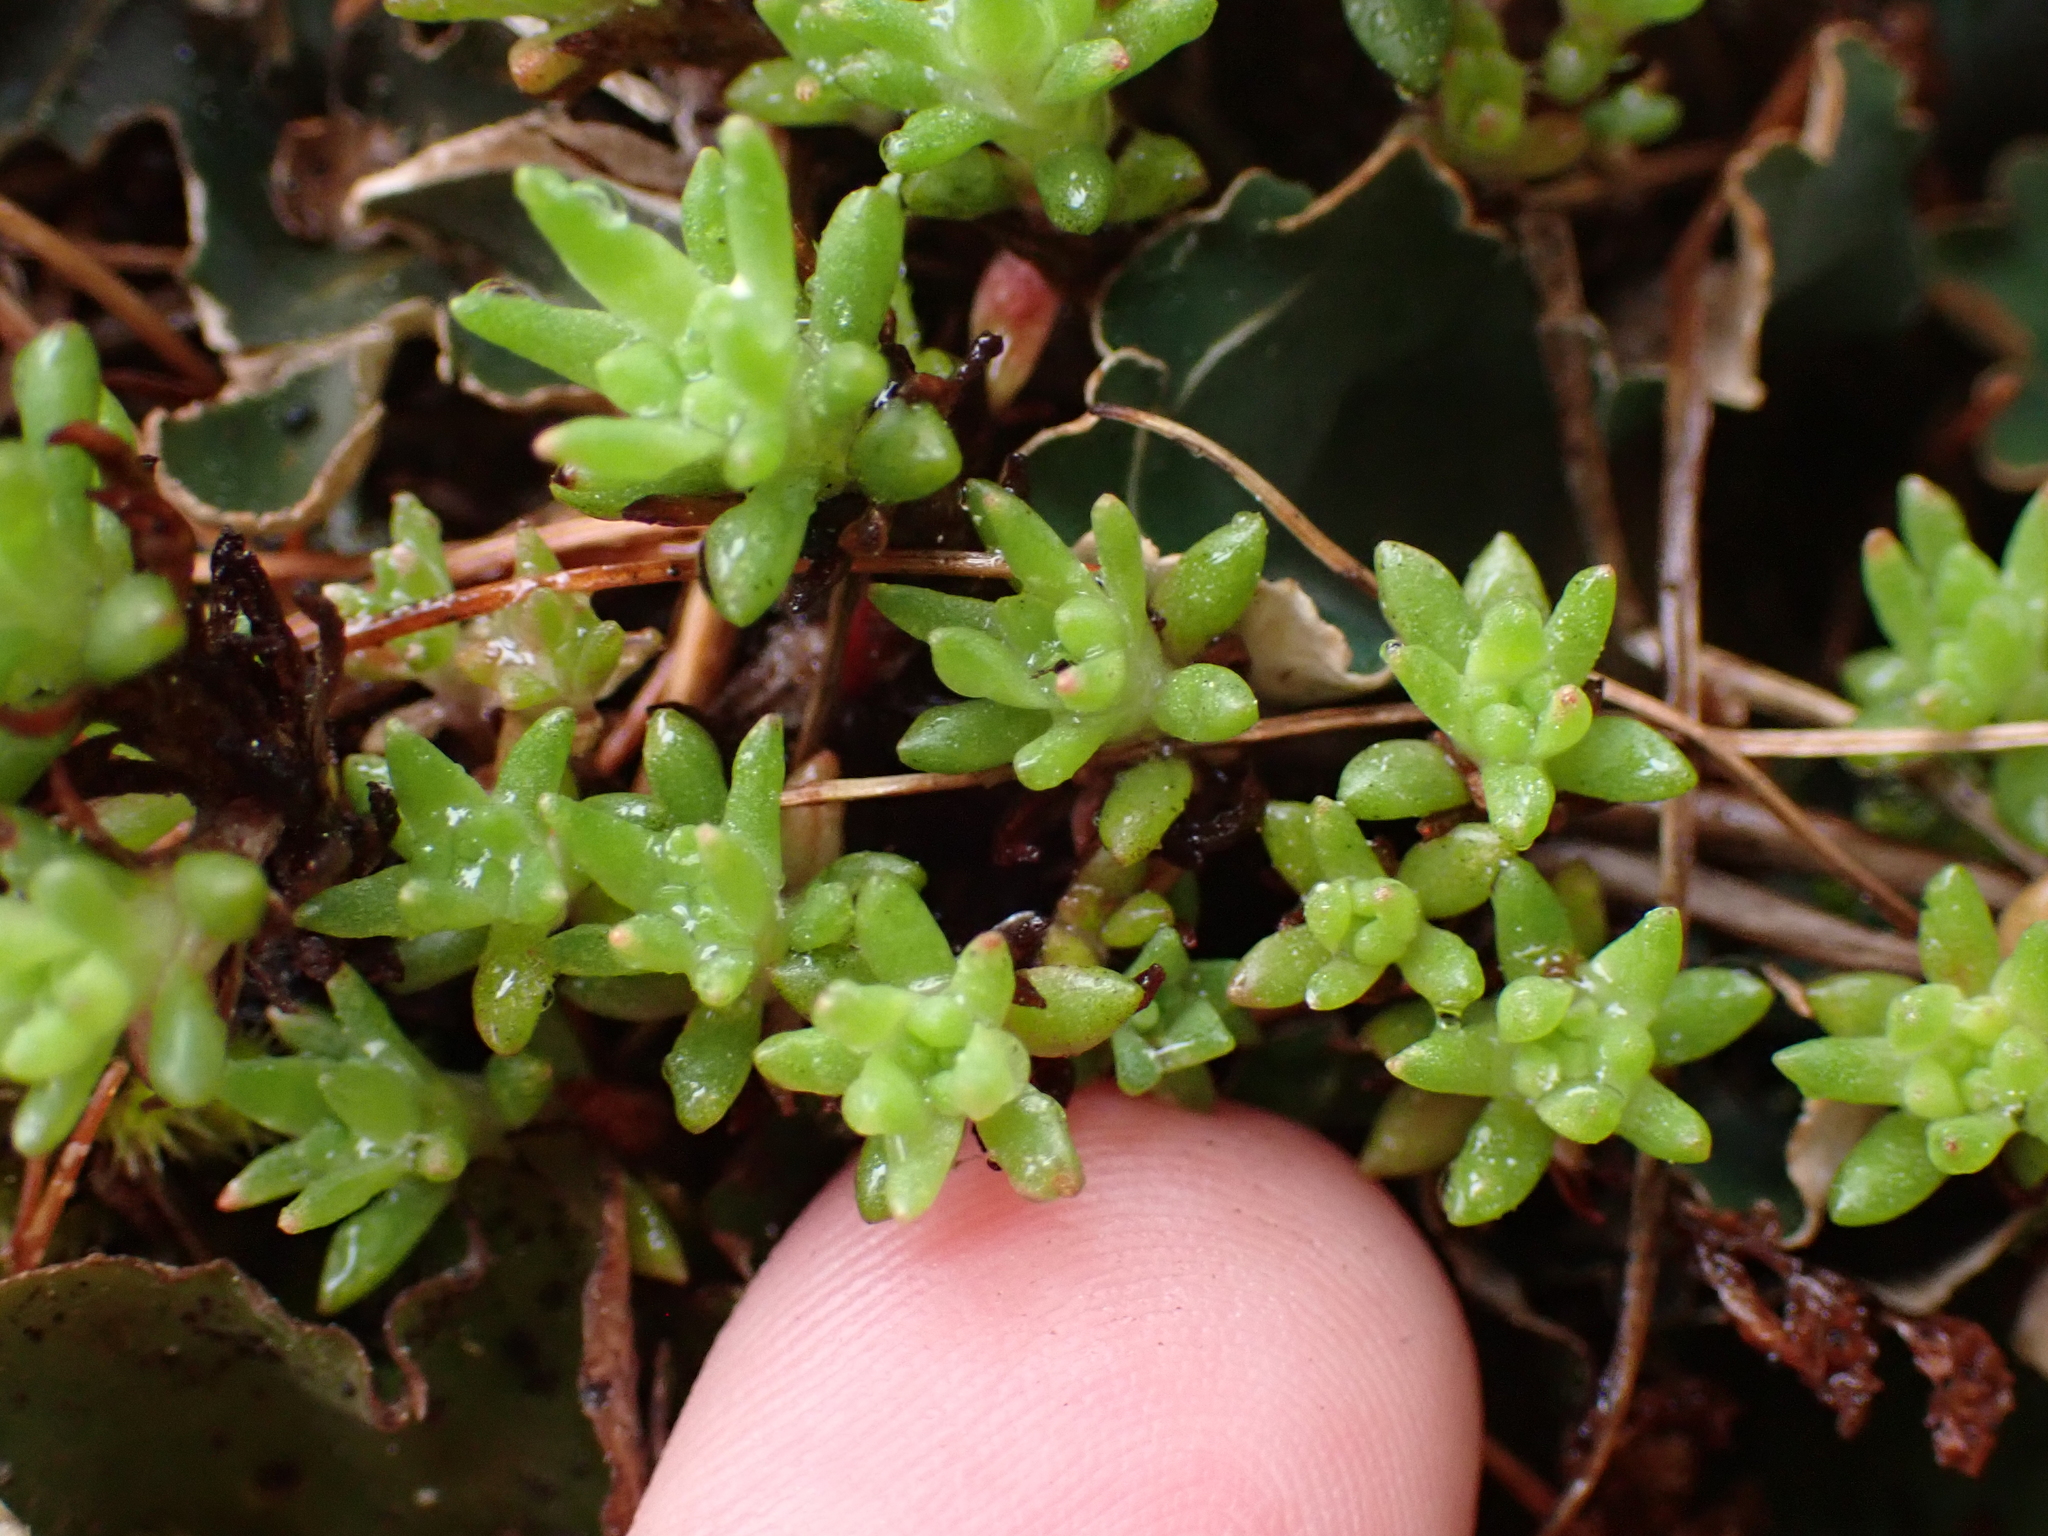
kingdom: Plantae
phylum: Tracheophyta
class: Magnoliopsida
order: Saxifragales
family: Crassulaceae
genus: Sedum
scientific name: Sedum stenopetalum
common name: Narrow-petaled stonecrop
